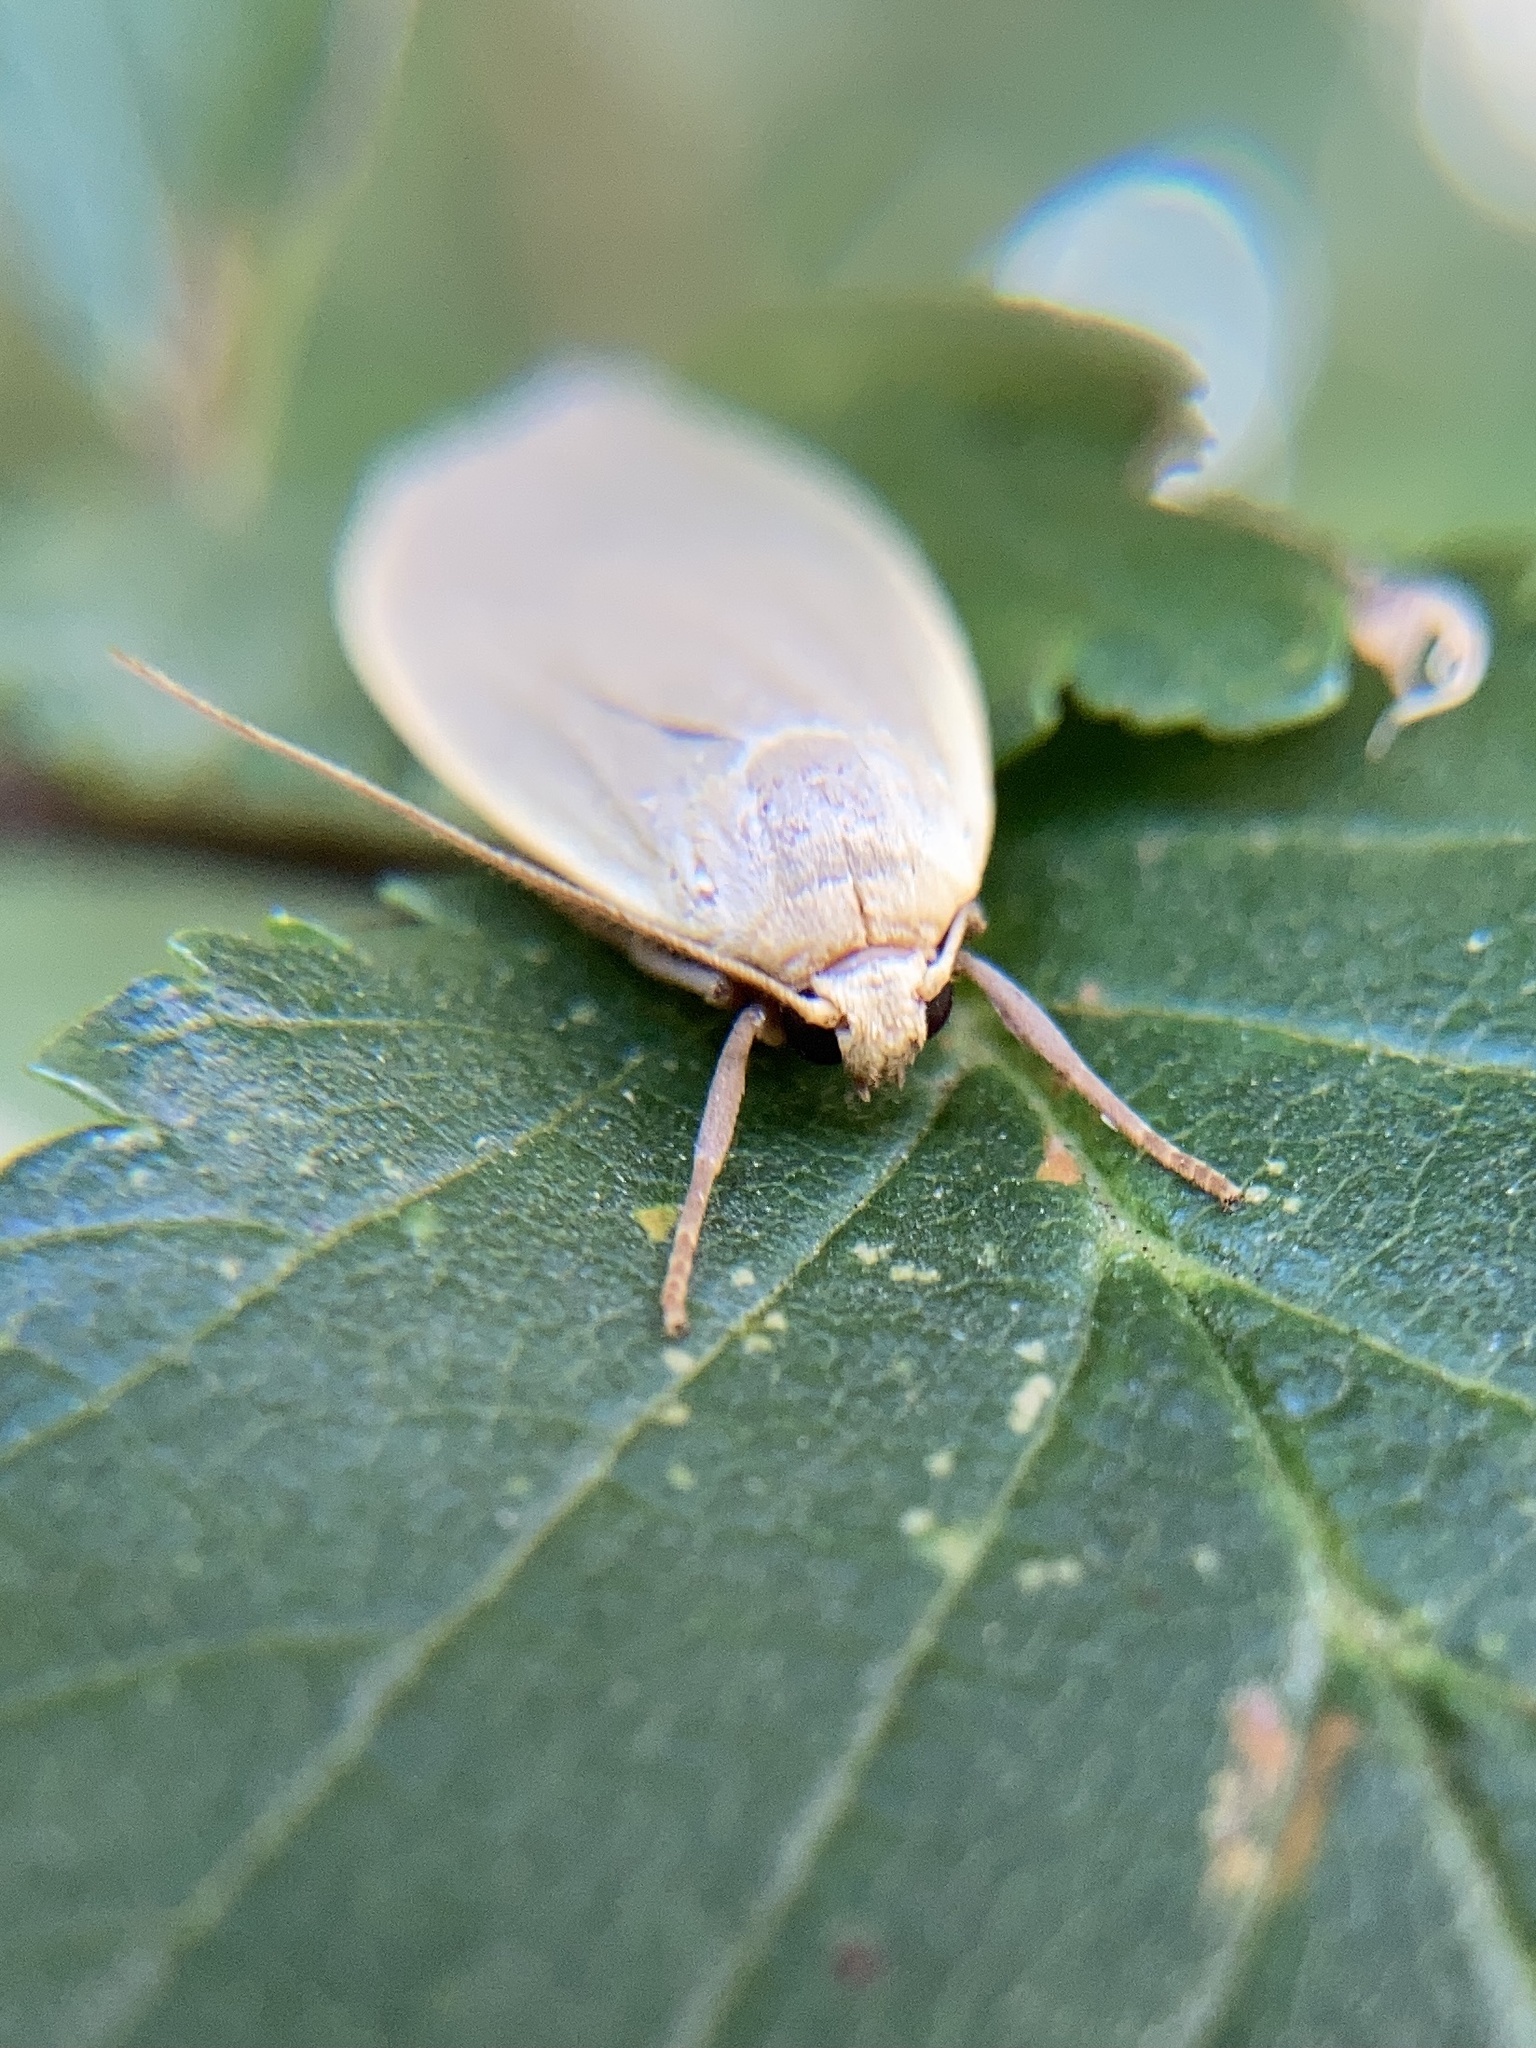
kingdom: Animalia
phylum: Arthropoda
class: Insecta
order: Lepidoptera
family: Erebidae
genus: Collita
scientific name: Collita griseola
